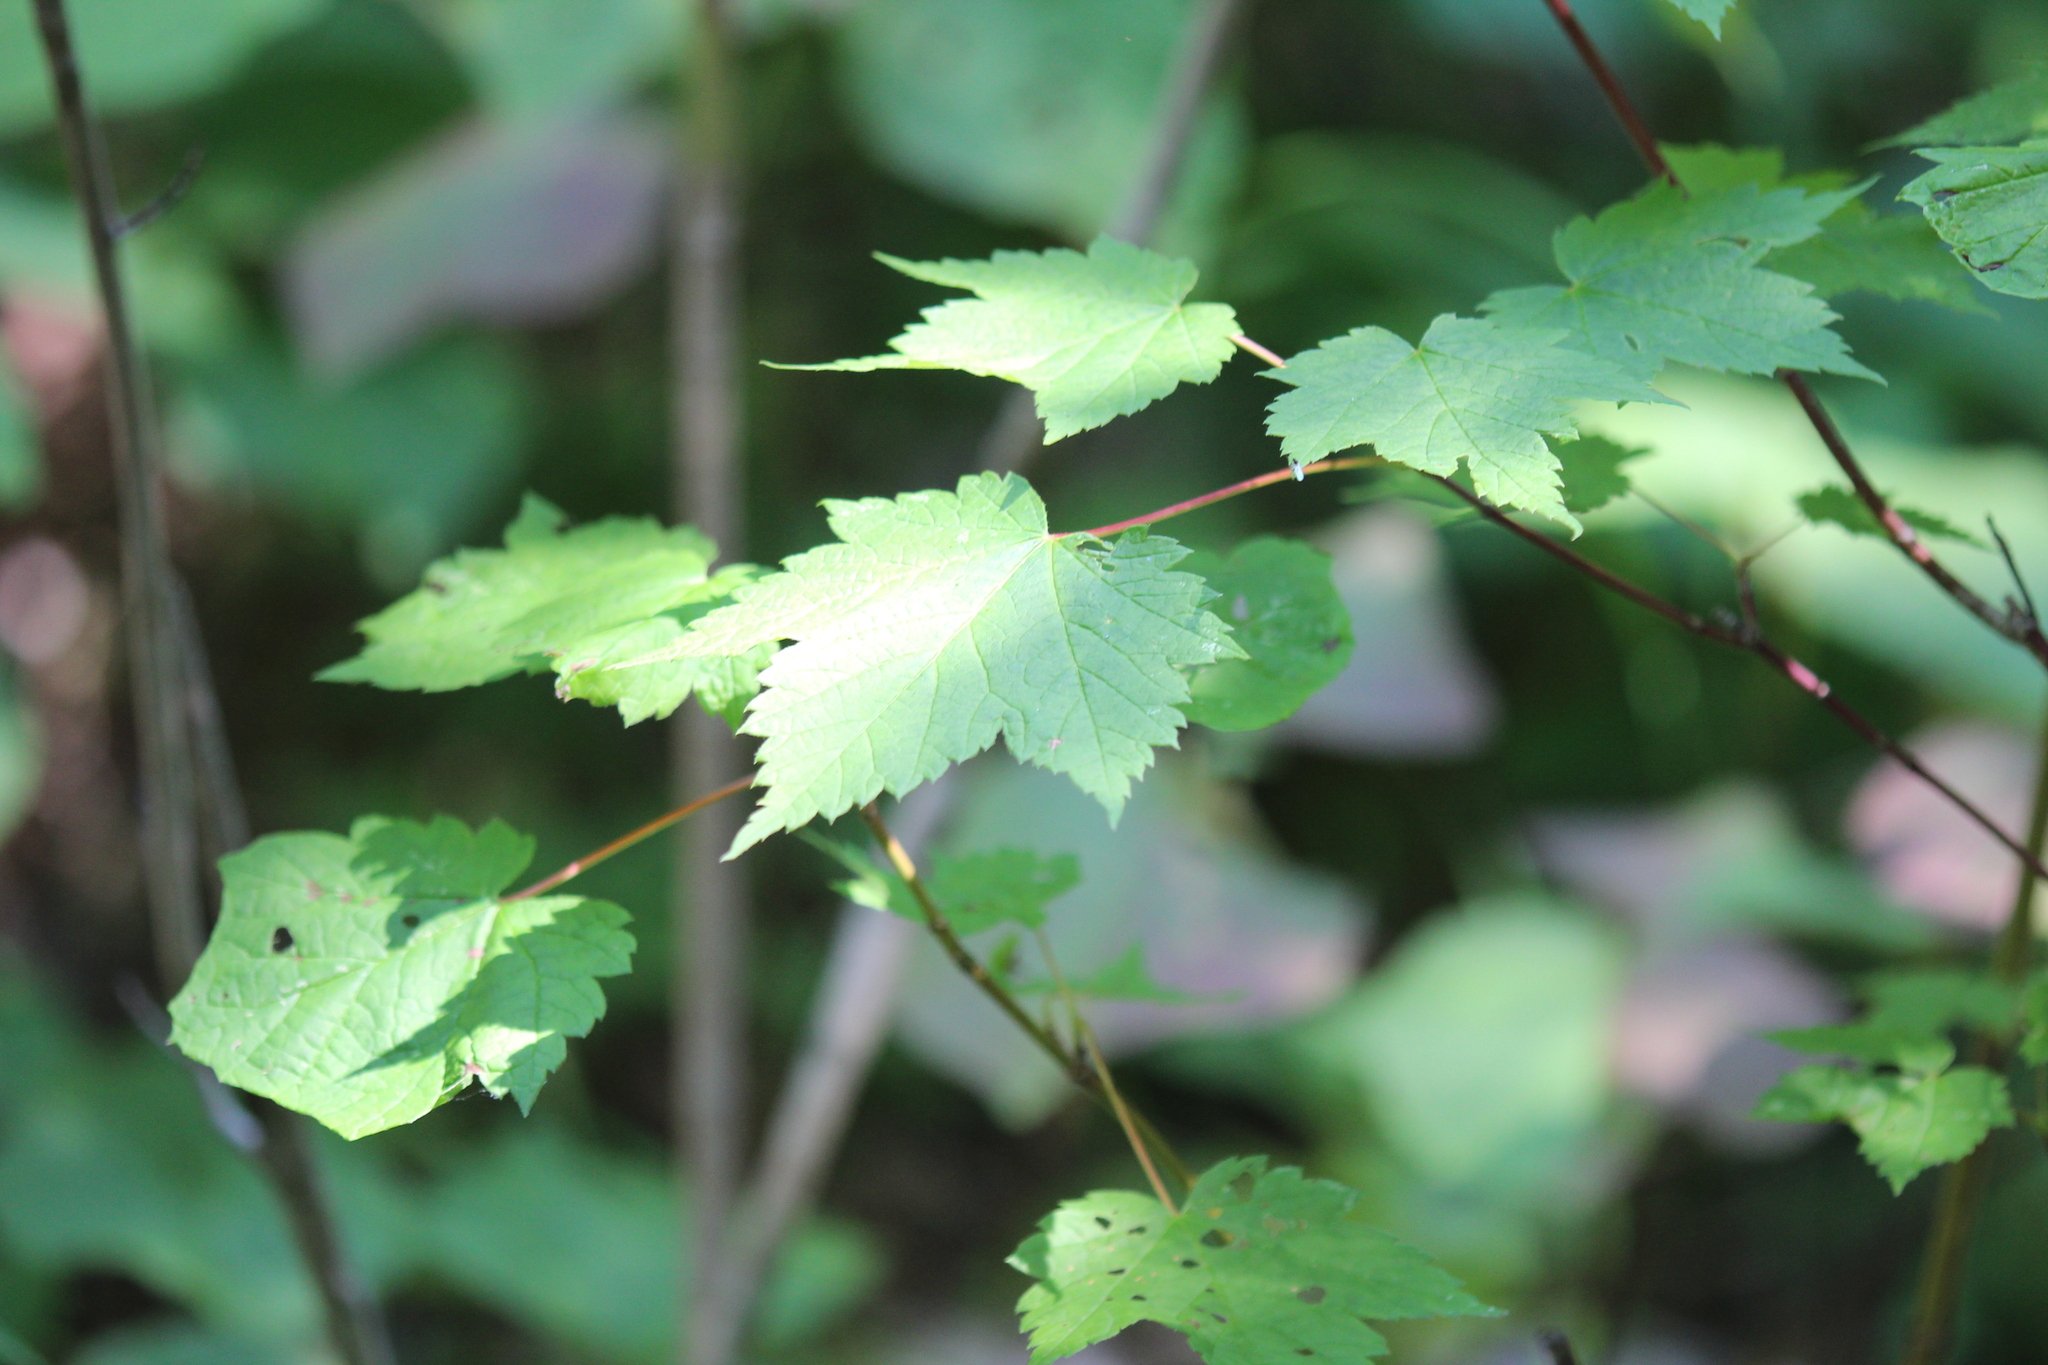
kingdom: Plantae
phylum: Tracheophyta
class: Magnoliopsida
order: Sapindales
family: Sapindaceae
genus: Acer
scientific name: Acer spicatum
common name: Mountain maple
